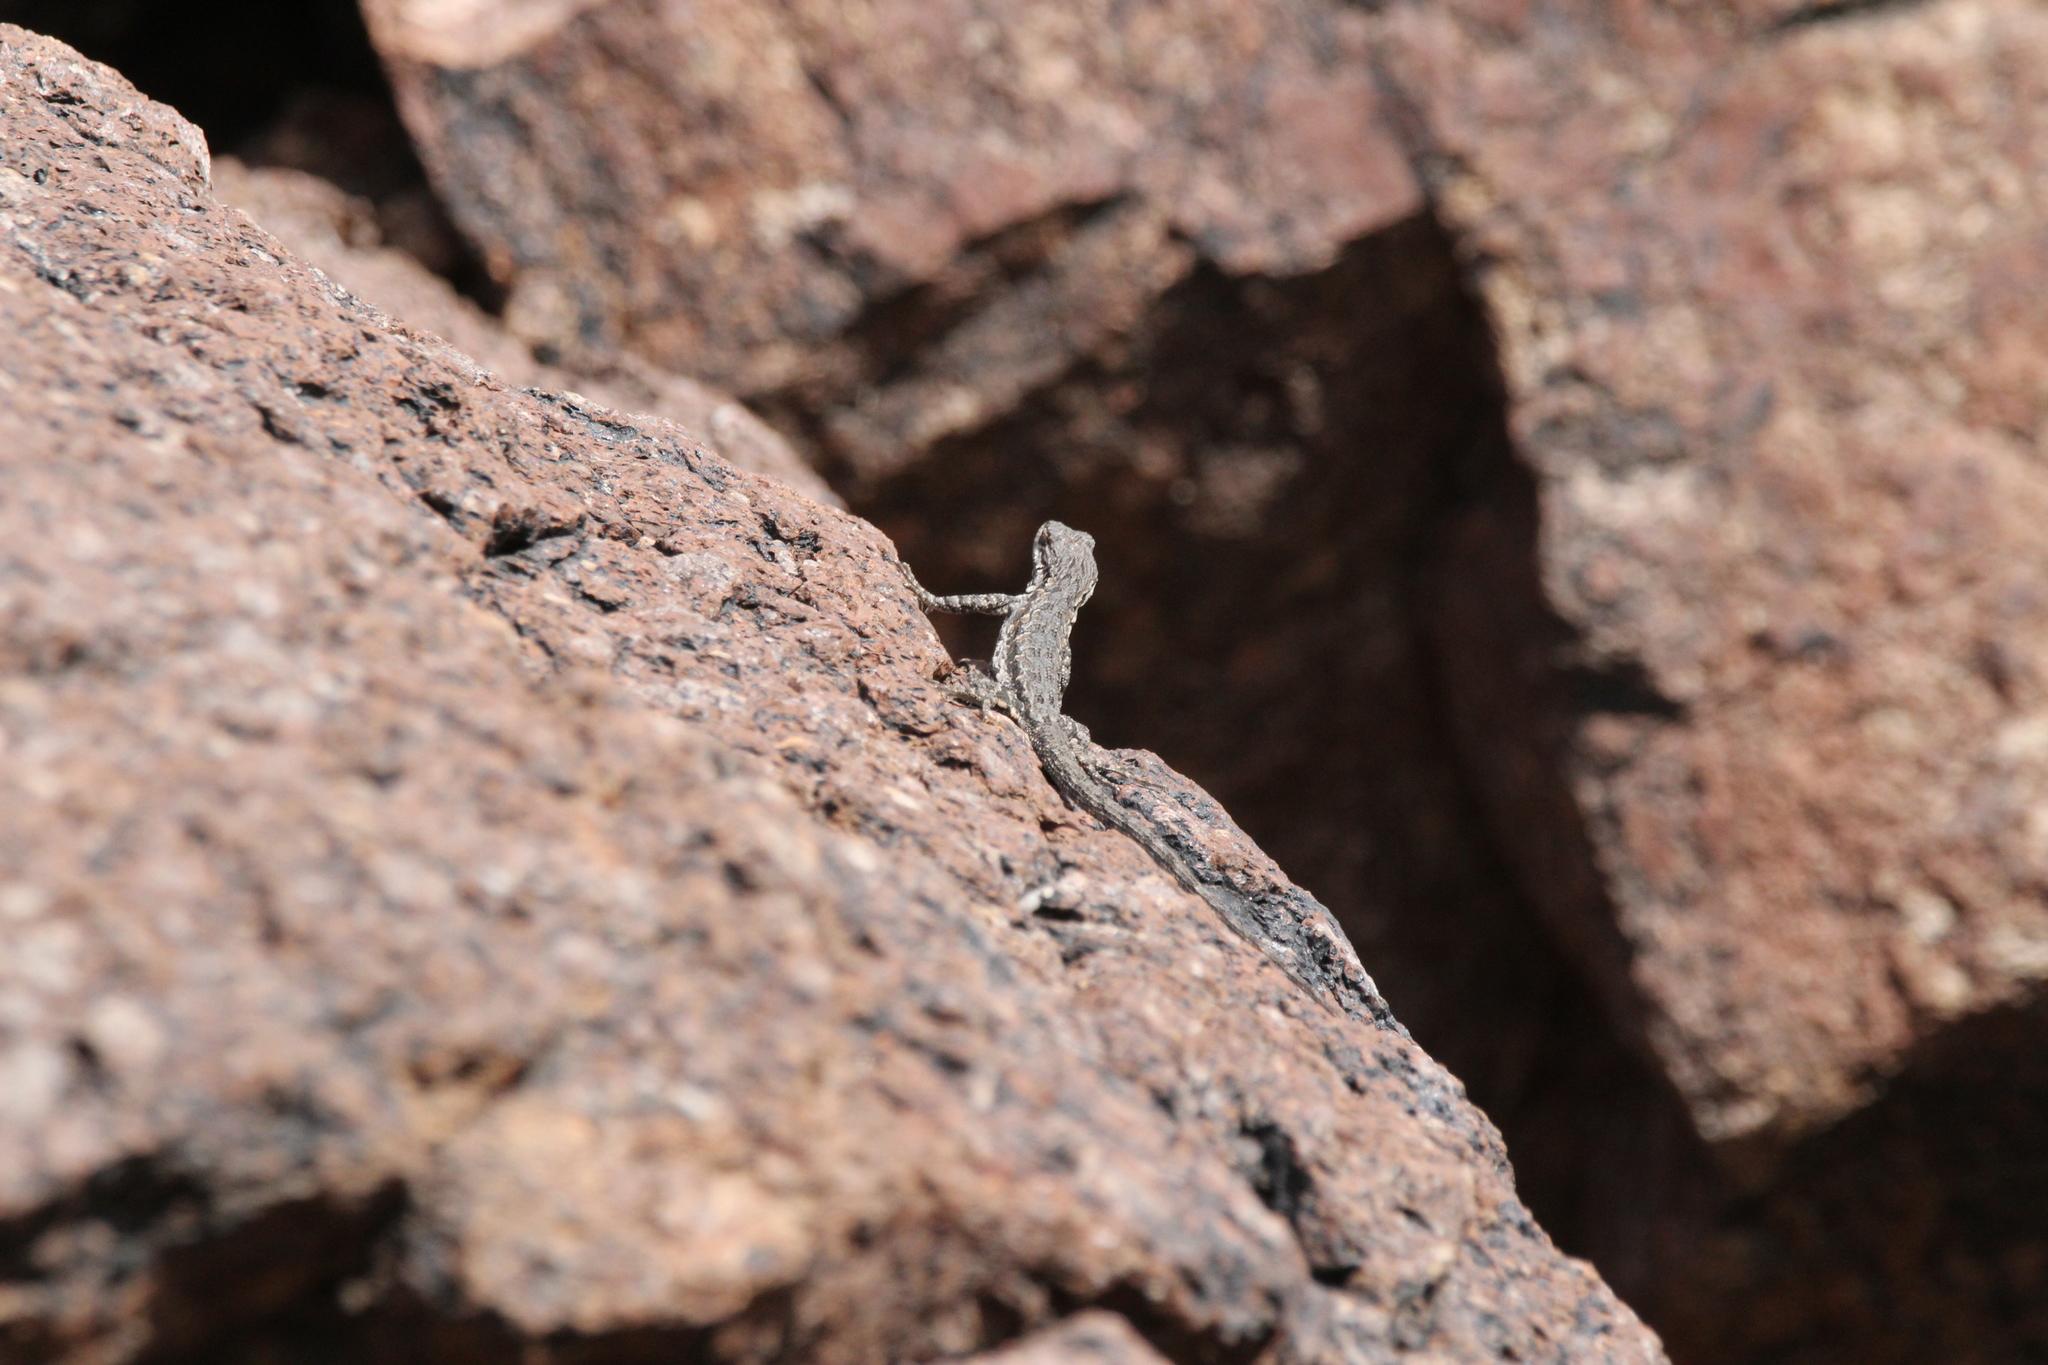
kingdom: Animalia
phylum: Chordata
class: Squamata
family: Phrynosomatidae
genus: Urosaurus
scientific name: Urosaurus ornatus
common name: Ornate tree lizard
